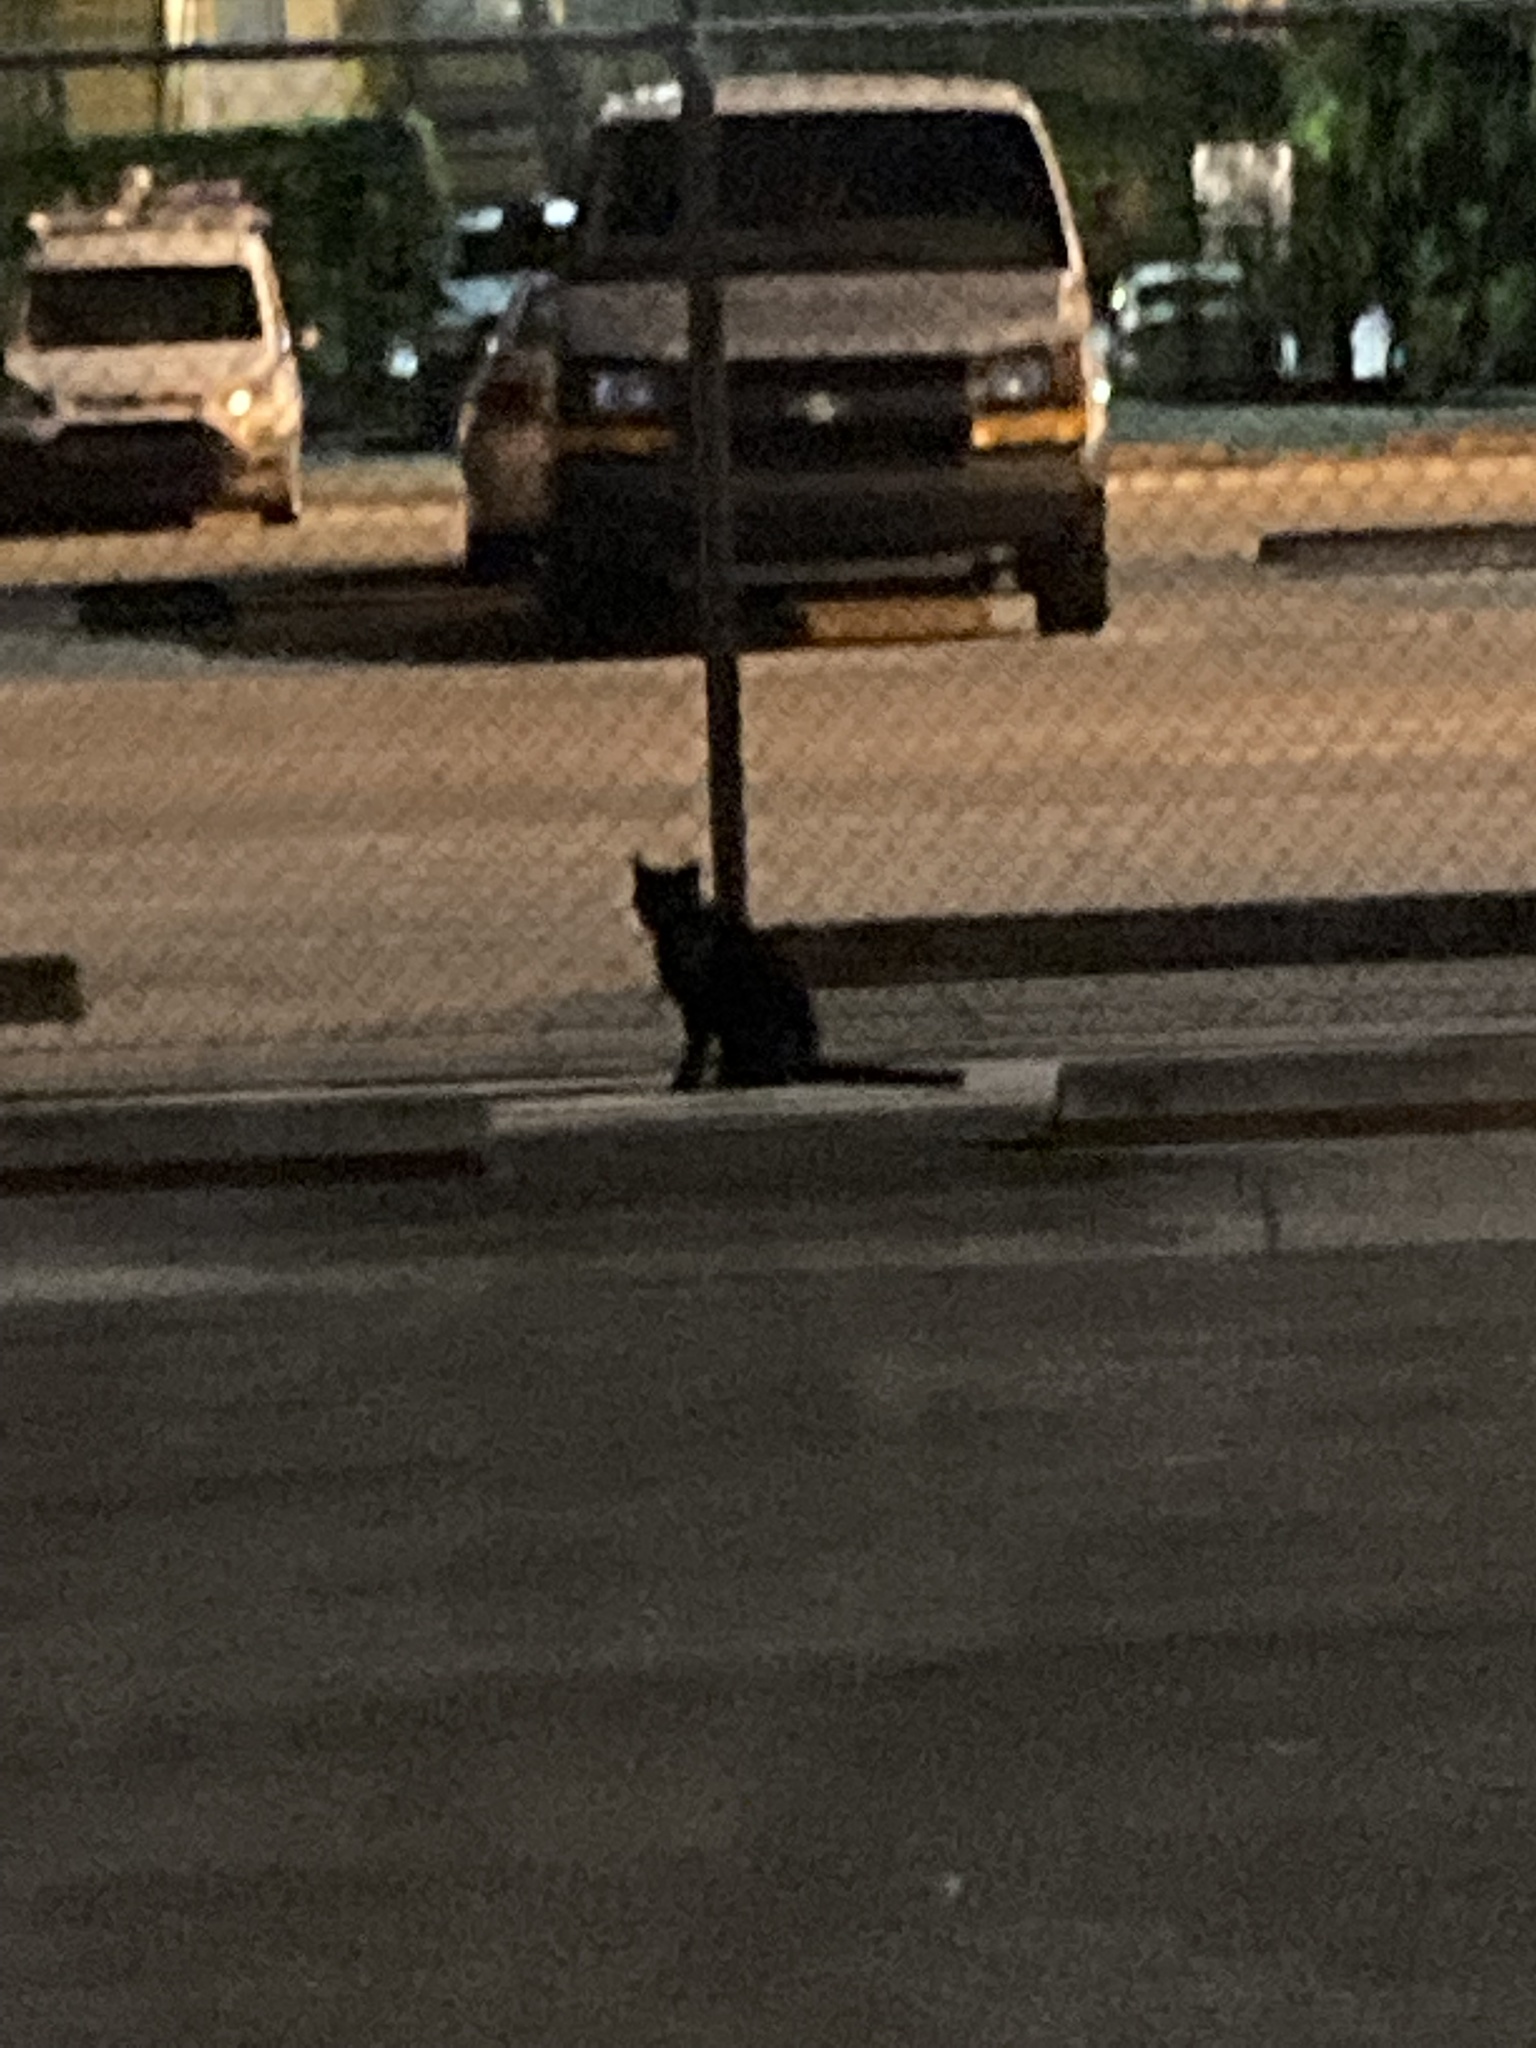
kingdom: Animalia
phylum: Chordata
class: Mammalia
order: Carnivora
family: Felidae
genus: Felis
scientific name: Felis catus
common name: Domestic cat
